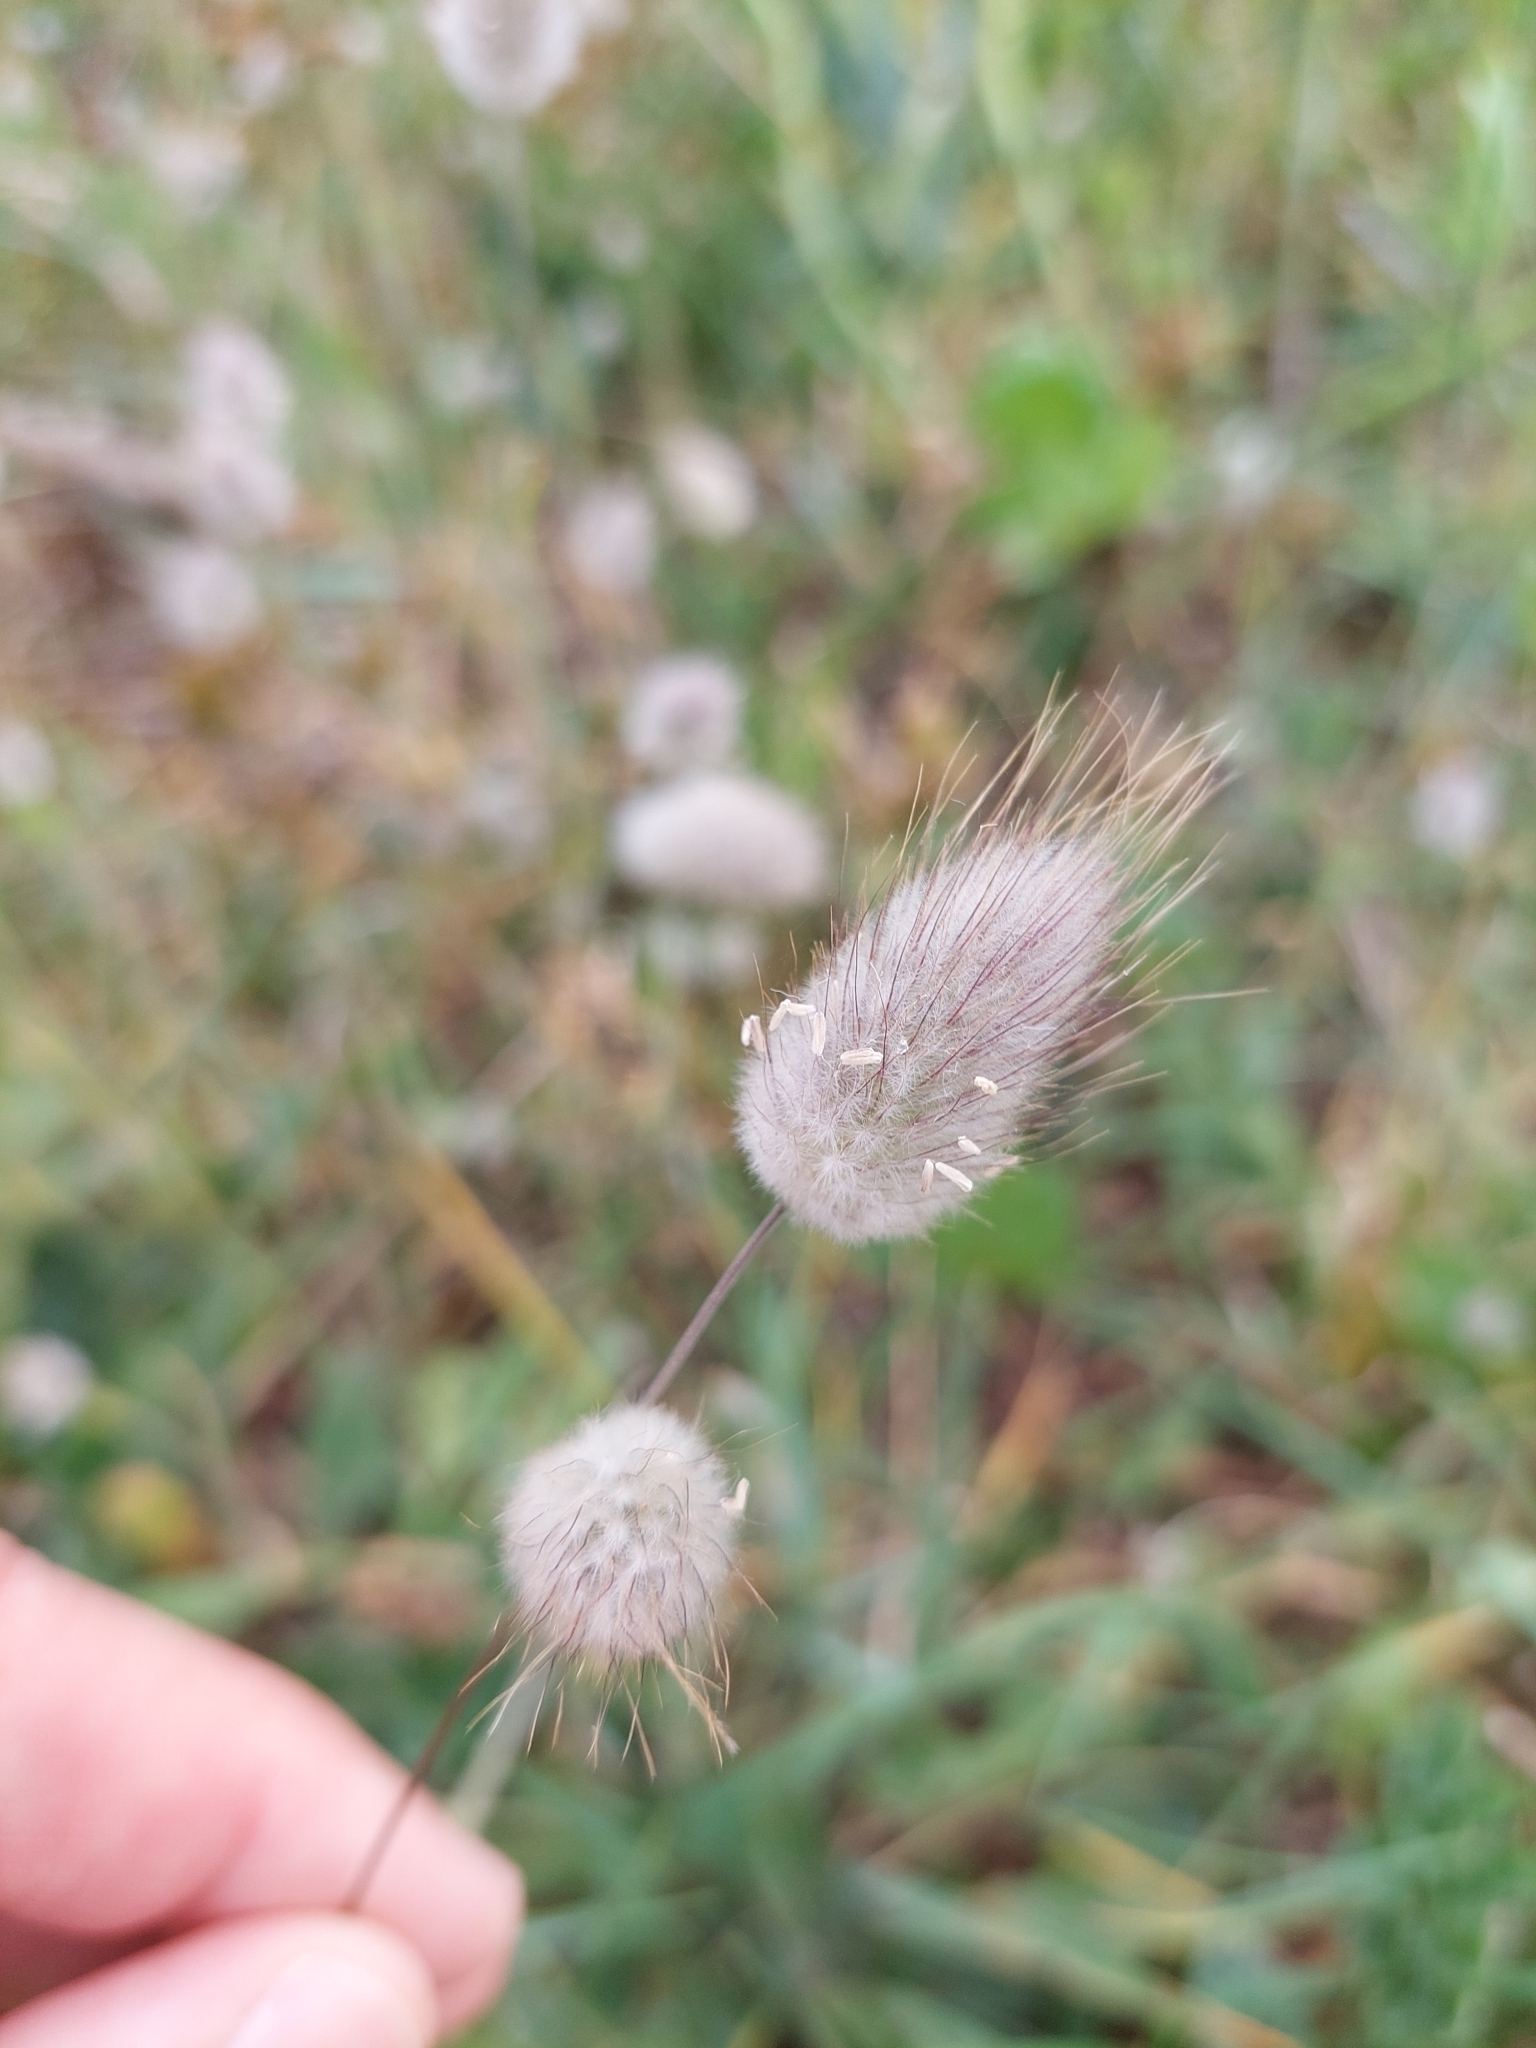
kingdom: Plantae
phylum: Tracheophyta
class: Liliopsida
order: Poales
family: Poaceae
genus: Lagurus
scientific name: Lagurus ovatus
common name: Hare's-tail
